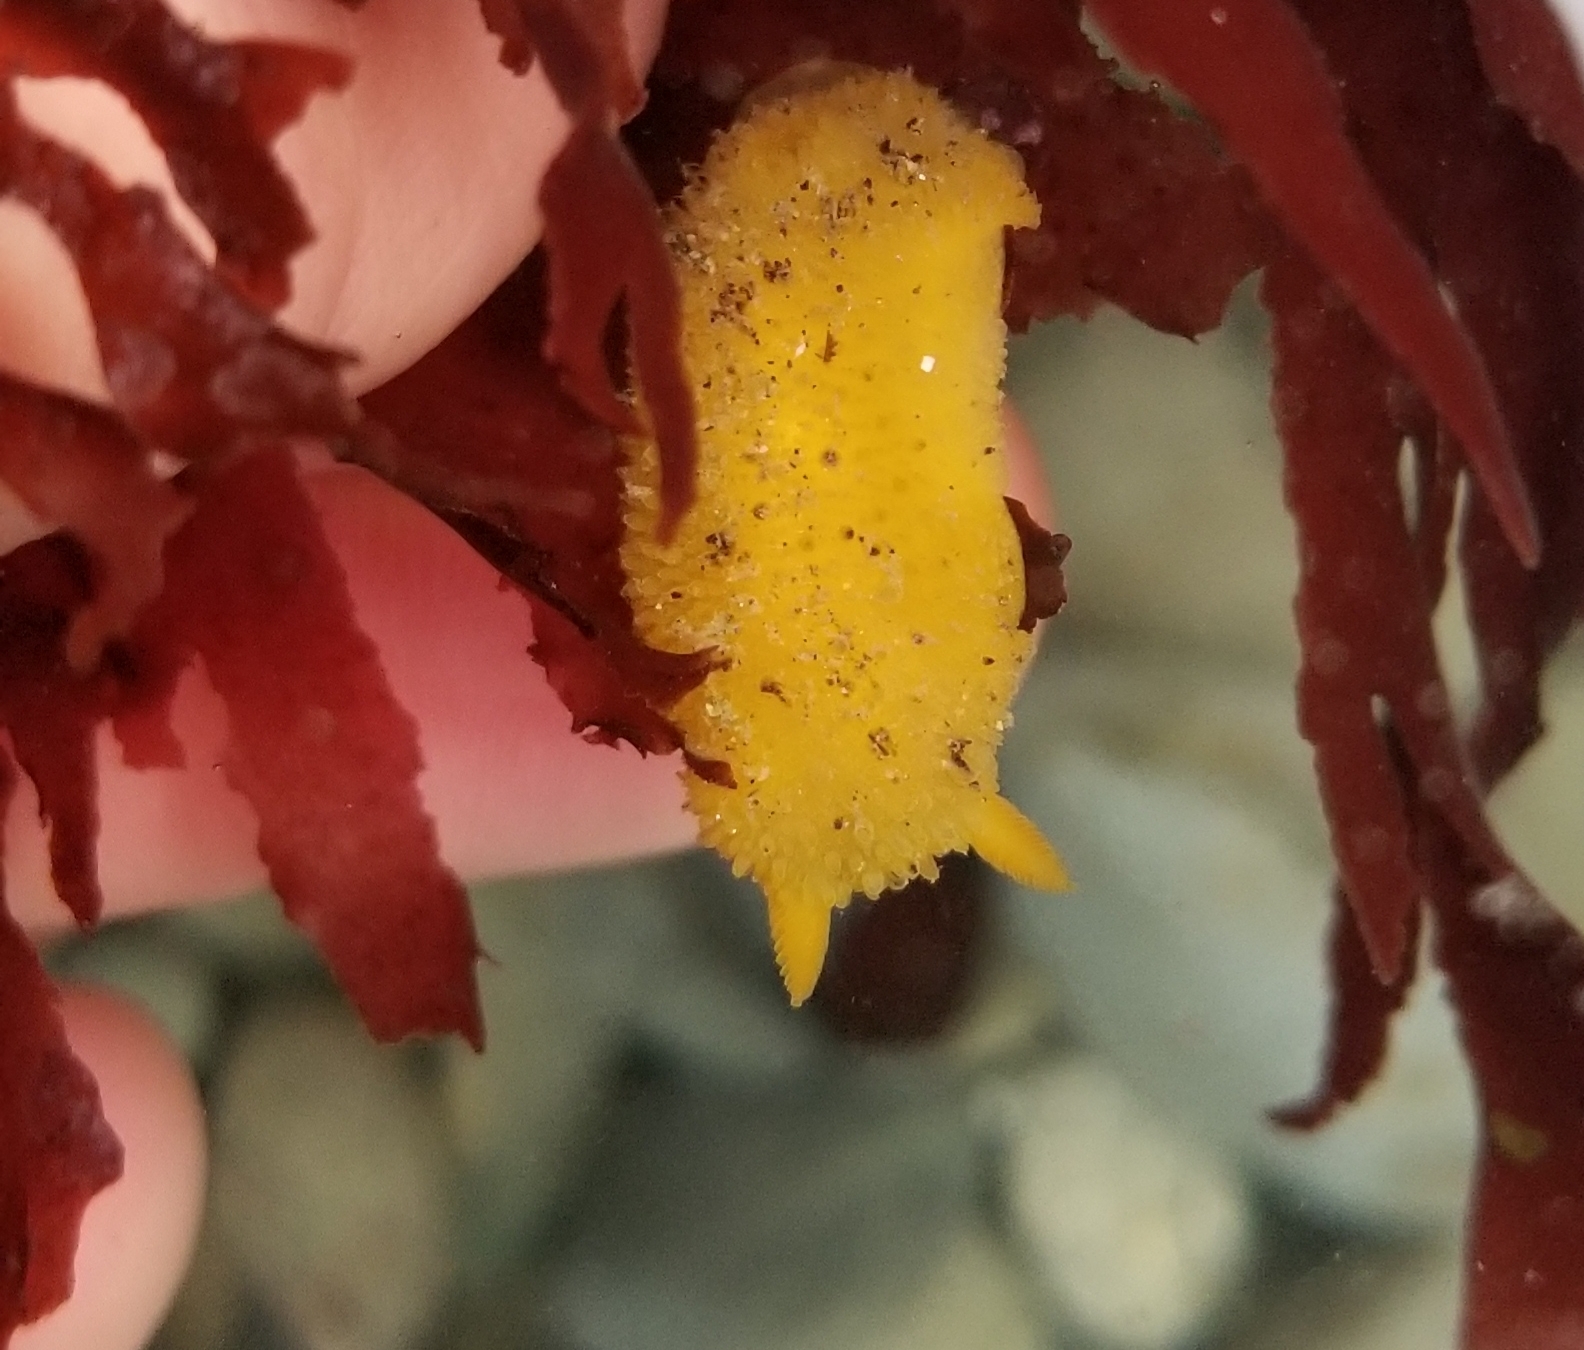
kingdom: Animalia
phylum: Mollusca
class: Gastropoda
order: Nudibranchia
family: Dorididae
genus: Doris
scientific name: Doris montereyensis
